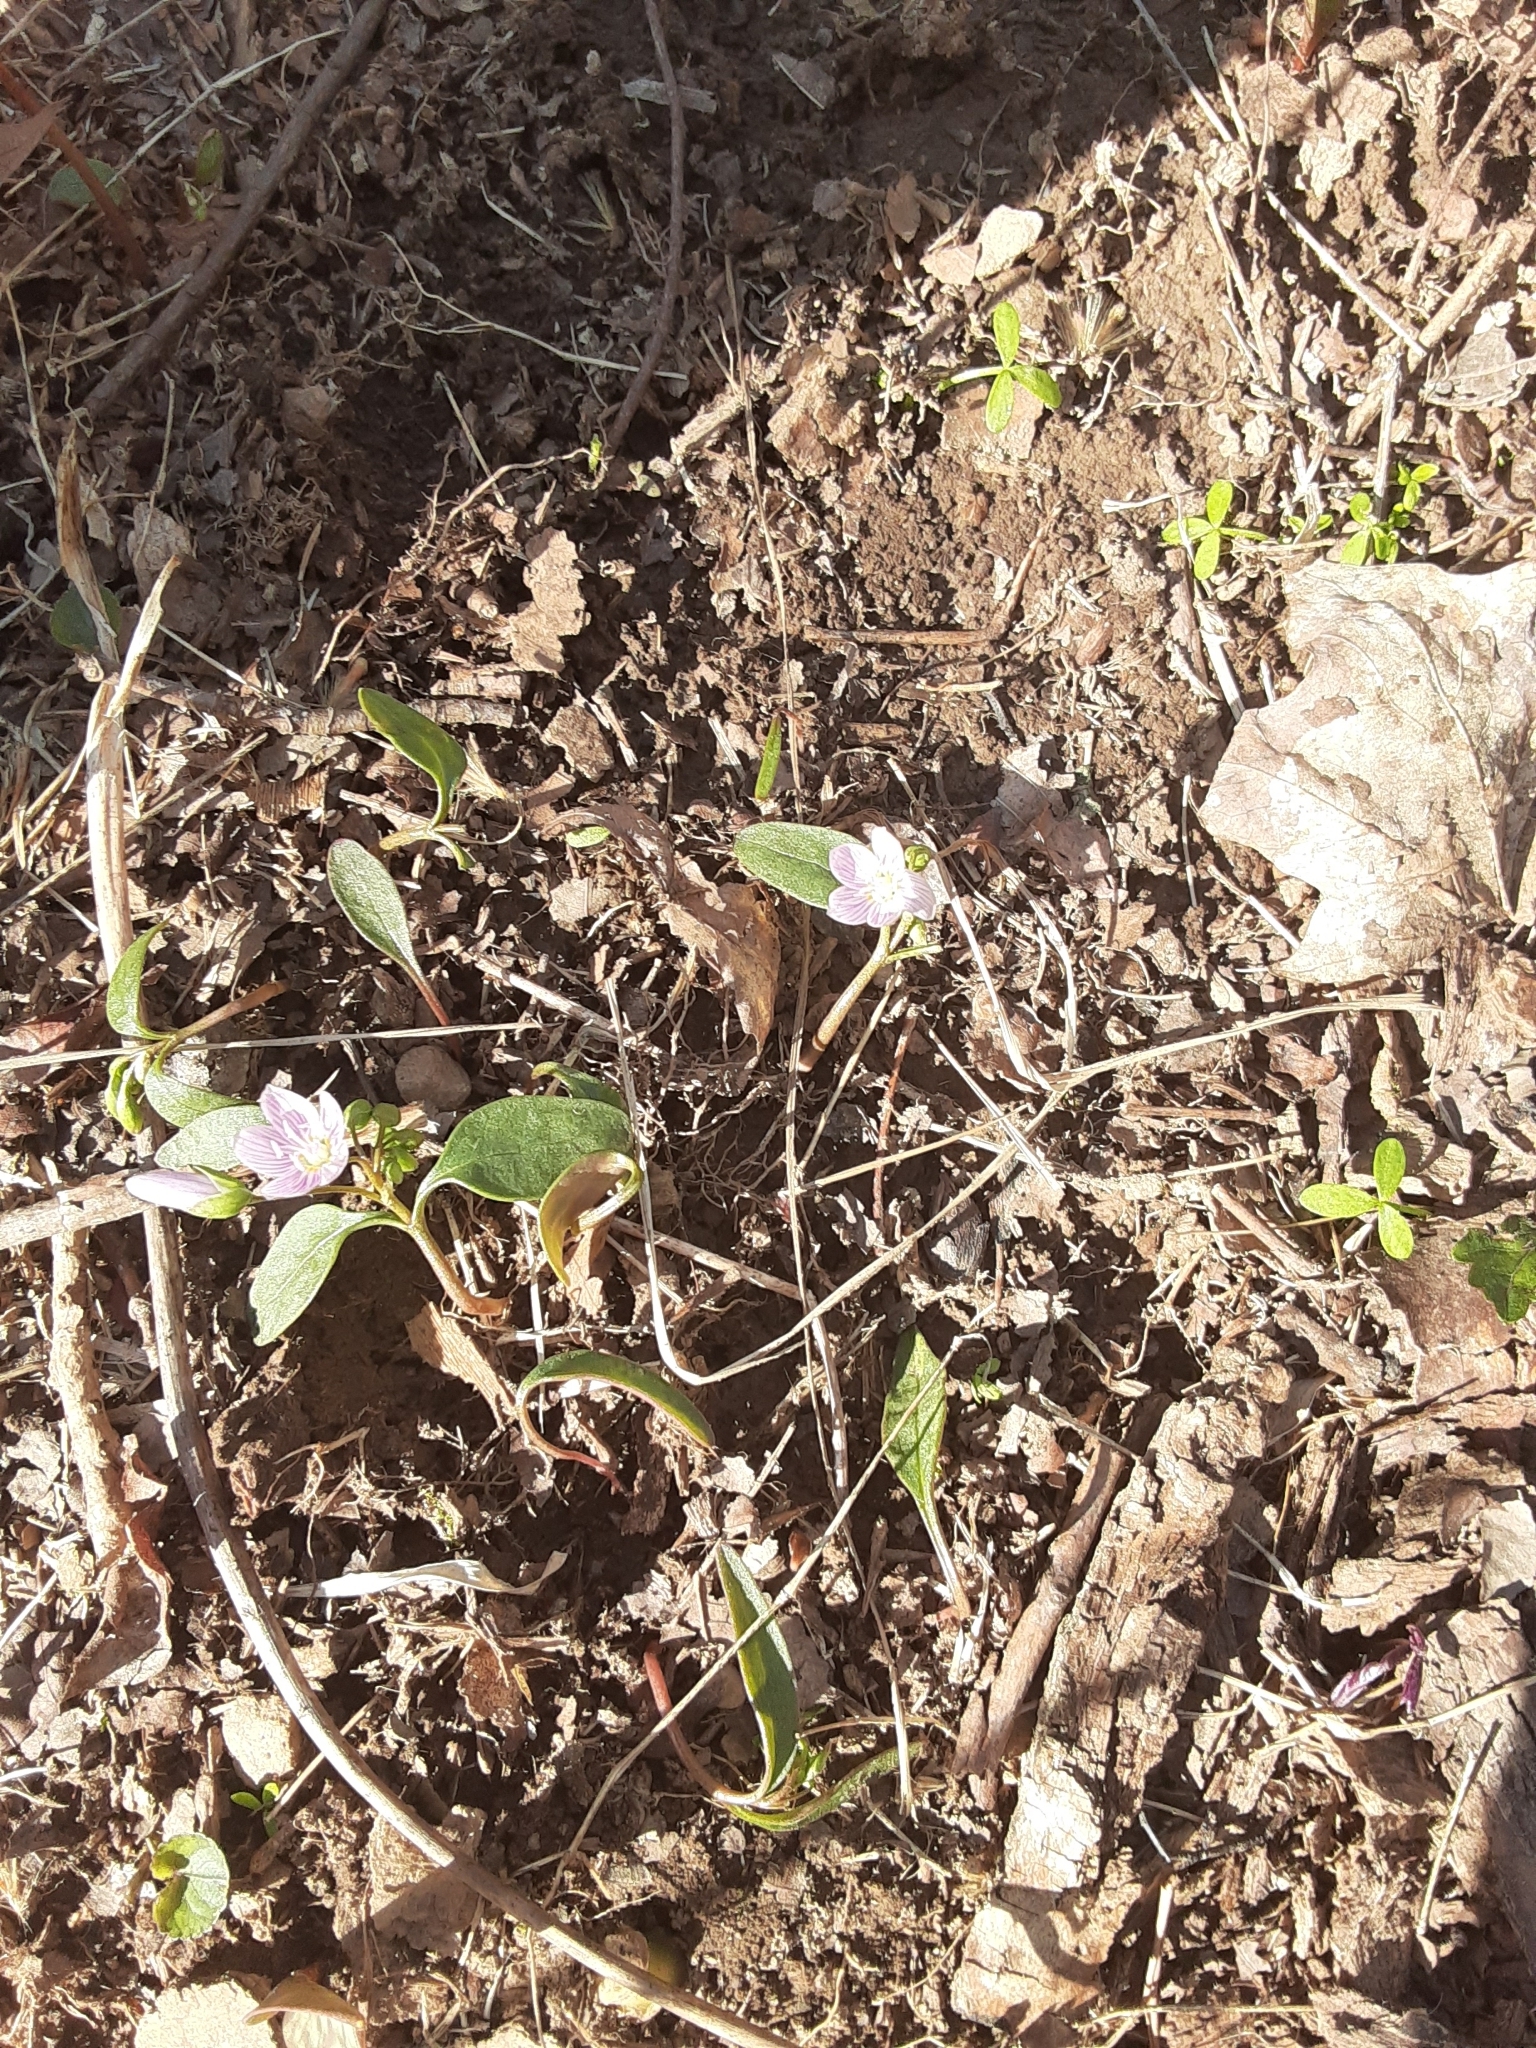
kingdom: Plantae
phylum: Tracheophyta
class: Magnoliopsida
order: Caryophyllales
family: Montiaceae
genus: Claytonia
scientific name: Claytonia caroliniana
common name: Carolina spring beauty
